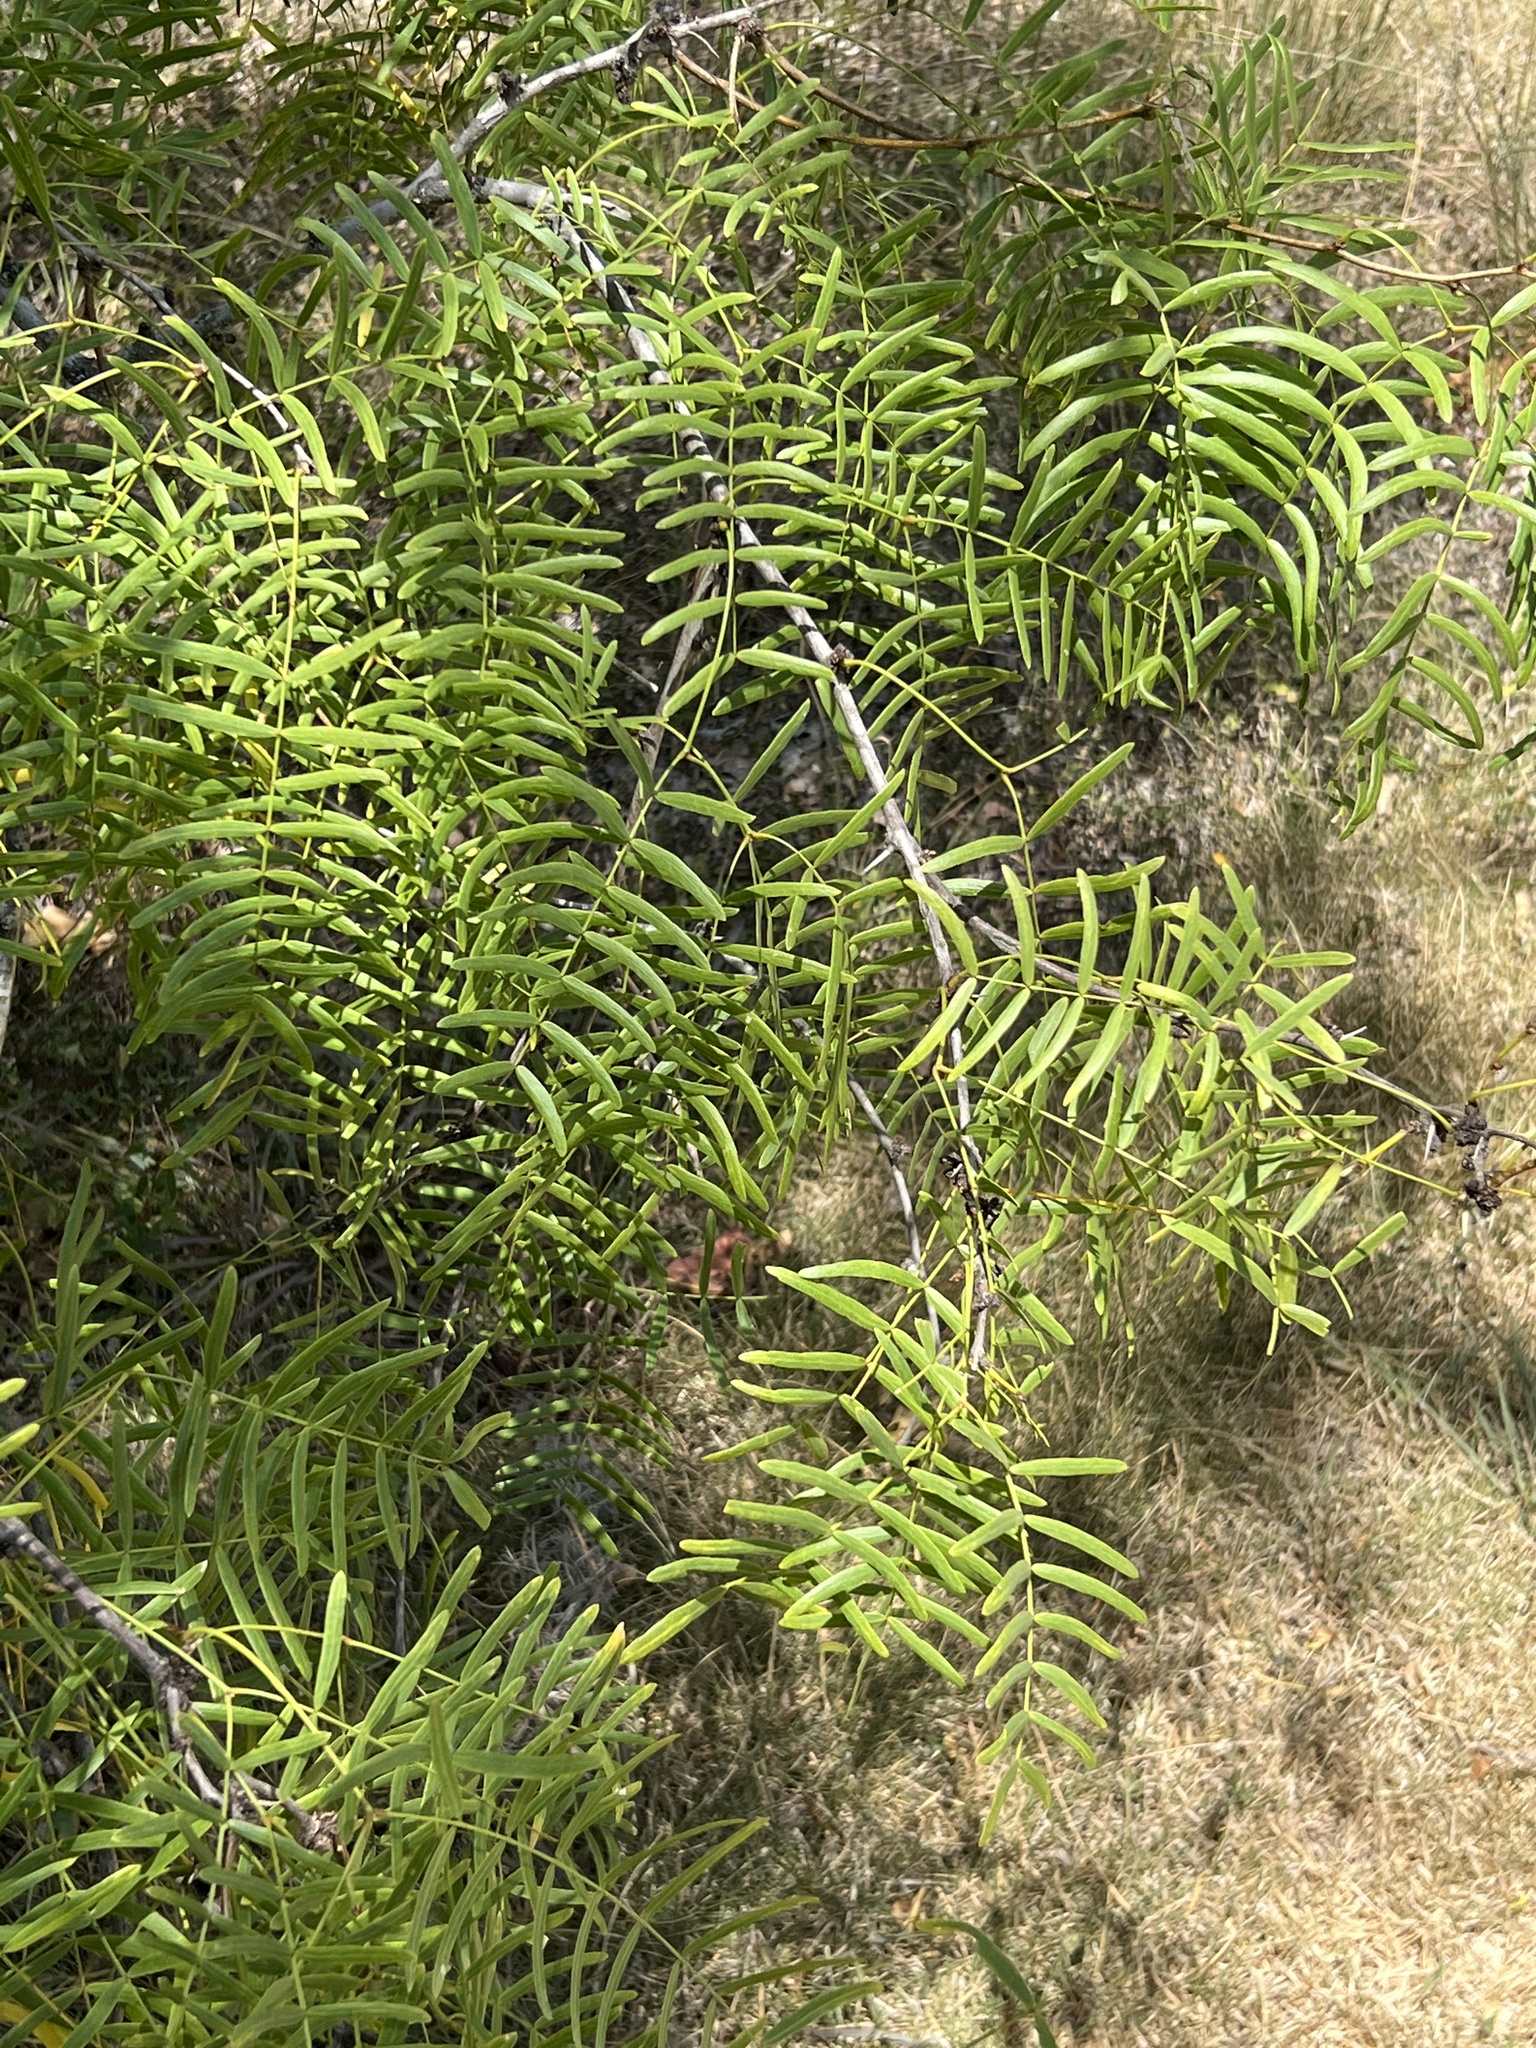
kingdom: Plantae
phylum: Tracheophyta
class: Magnoliopsida
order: Fabales
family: Fabaceae
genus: Prosopis
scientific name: Prosopis glandulosa
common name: Honey mesquite
